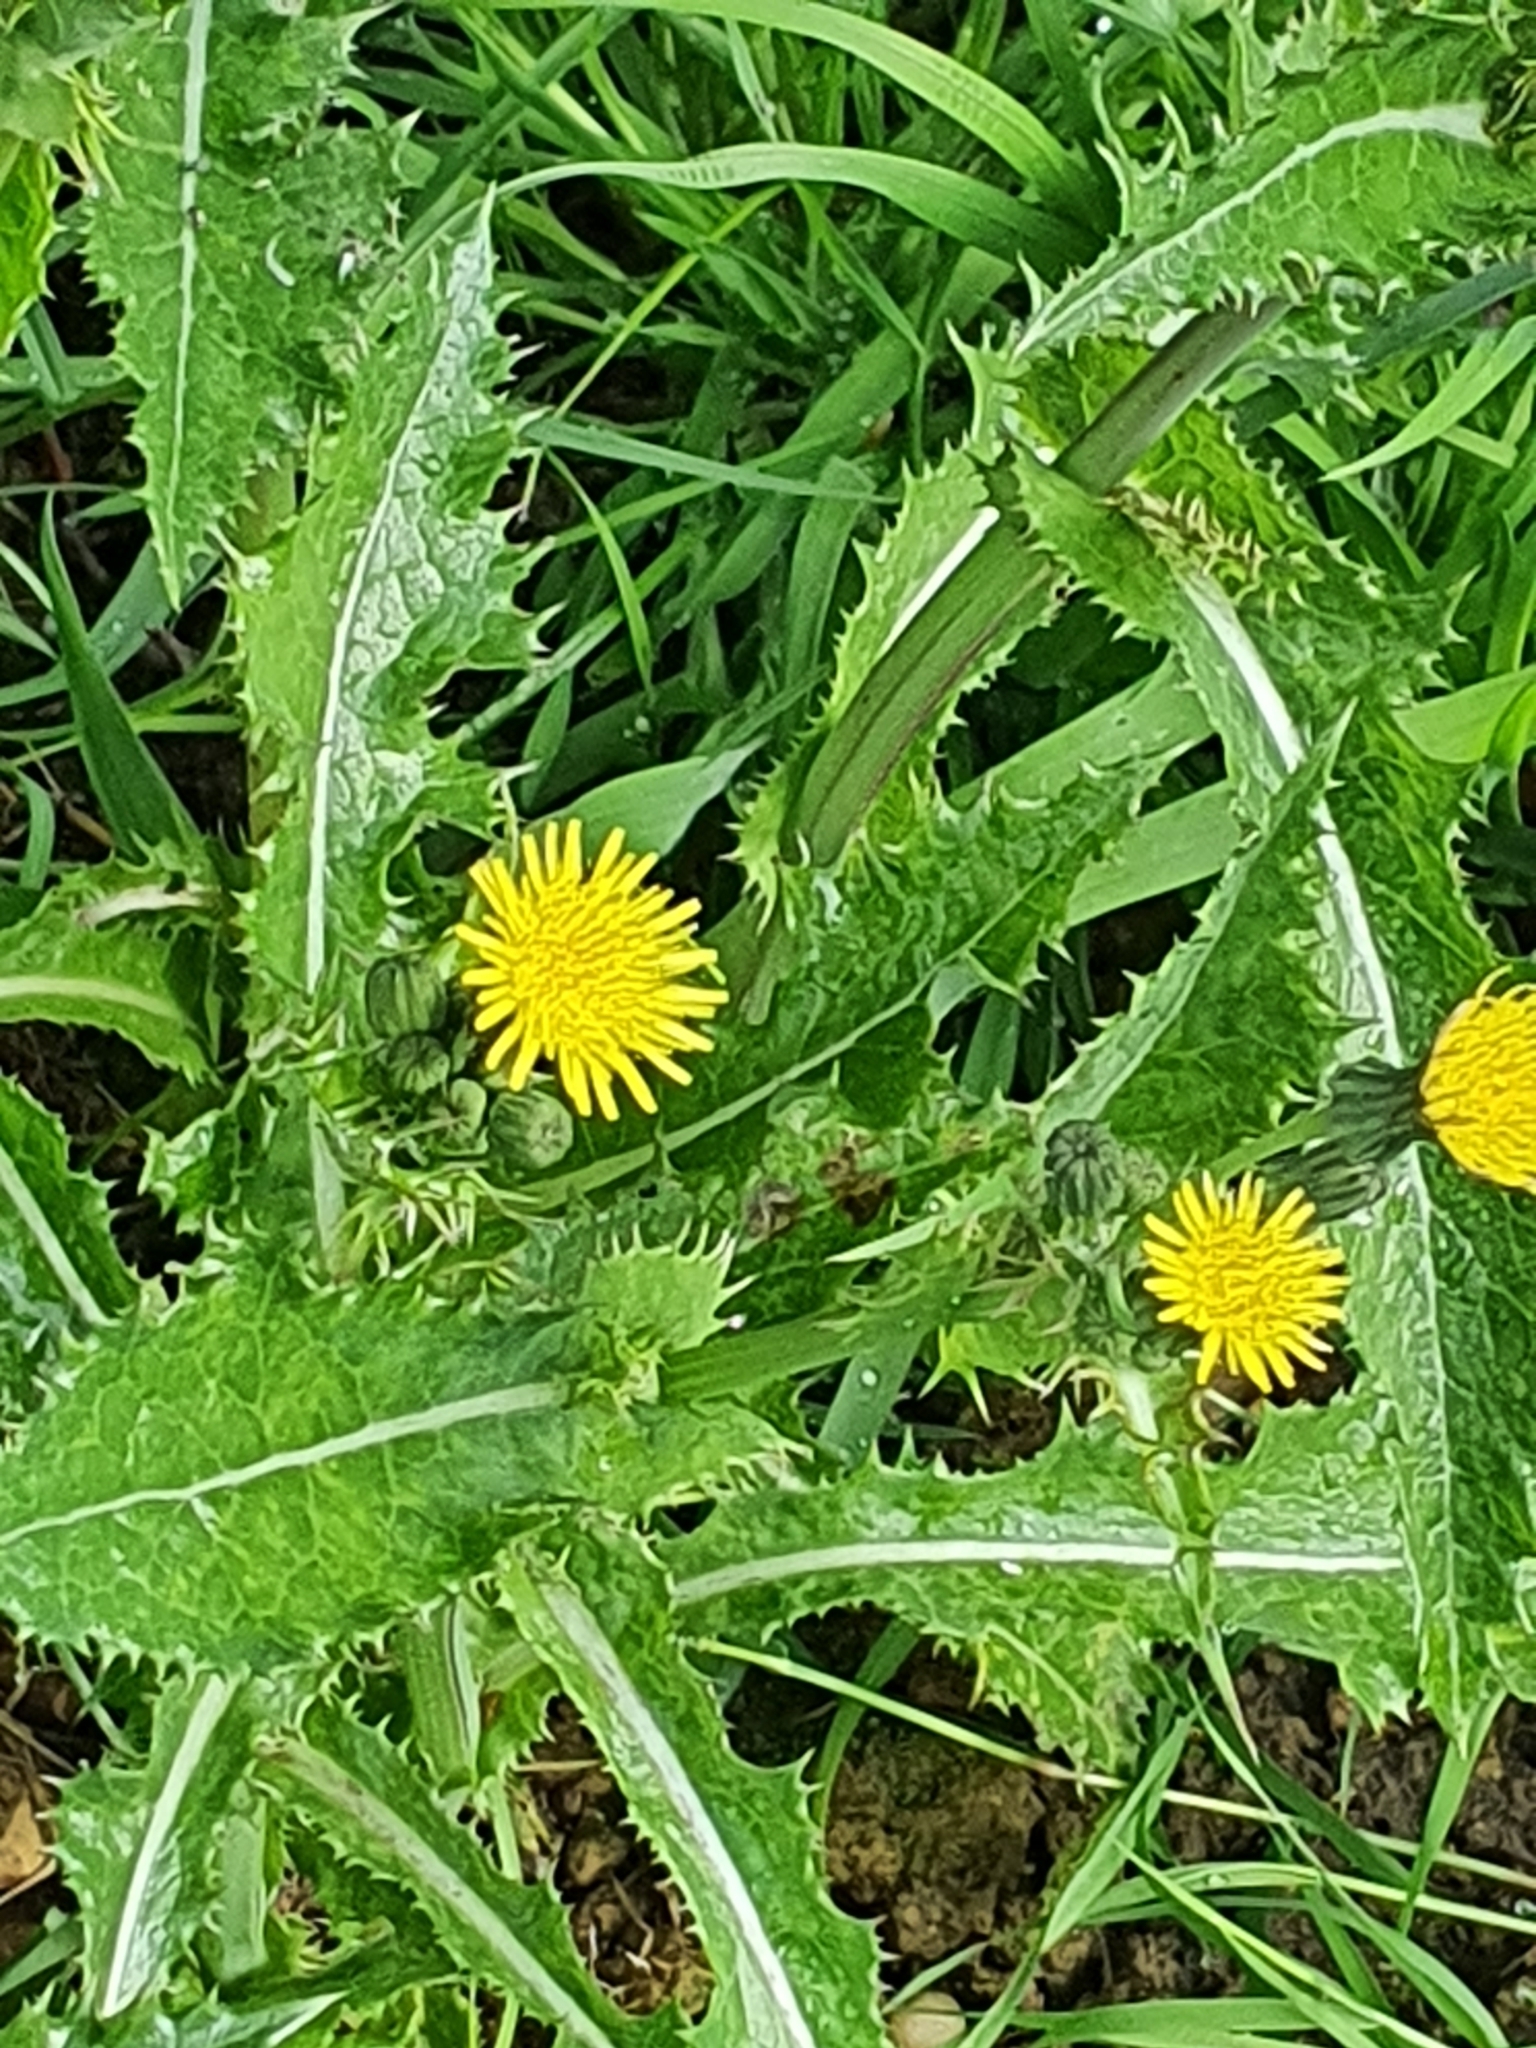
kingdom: Plantae
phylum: Tracheophyta
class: Magnoliopsida
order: Asterales
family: Asteraceae
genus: Sonchus
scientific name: Sonchus asper
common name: Prickly sow-thistle
